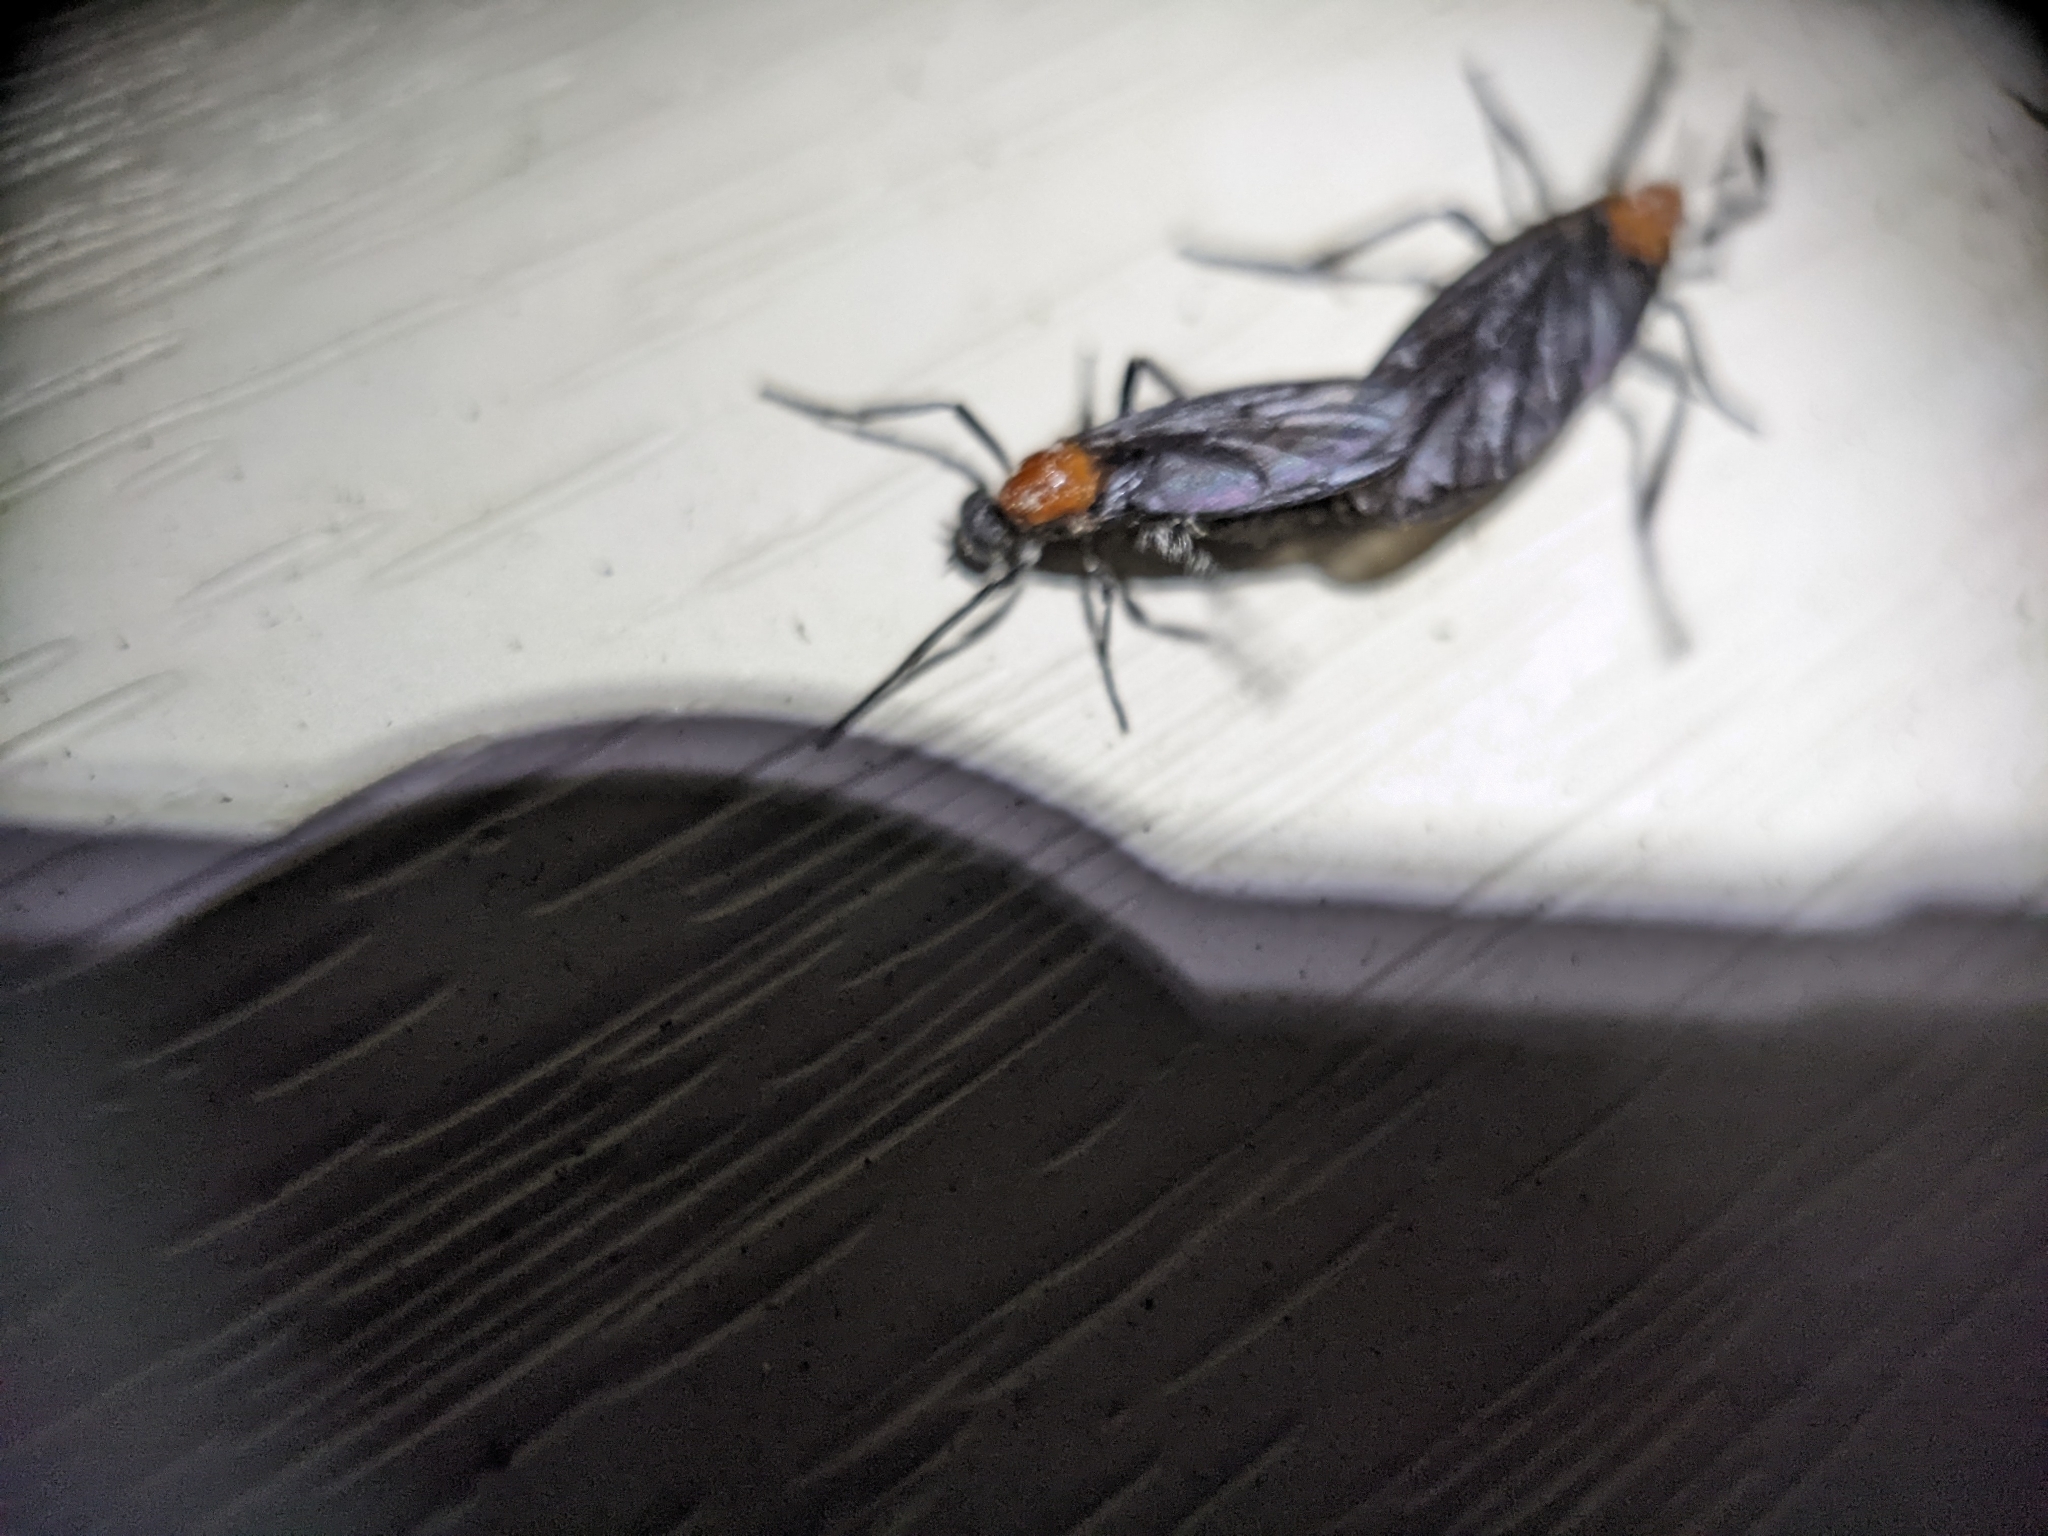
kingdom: Animalia
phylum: Arthropoda
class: Insecta
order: Diptera
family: Bibionidae
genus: Plecia
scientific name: Plecia nearctica
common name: March fly
